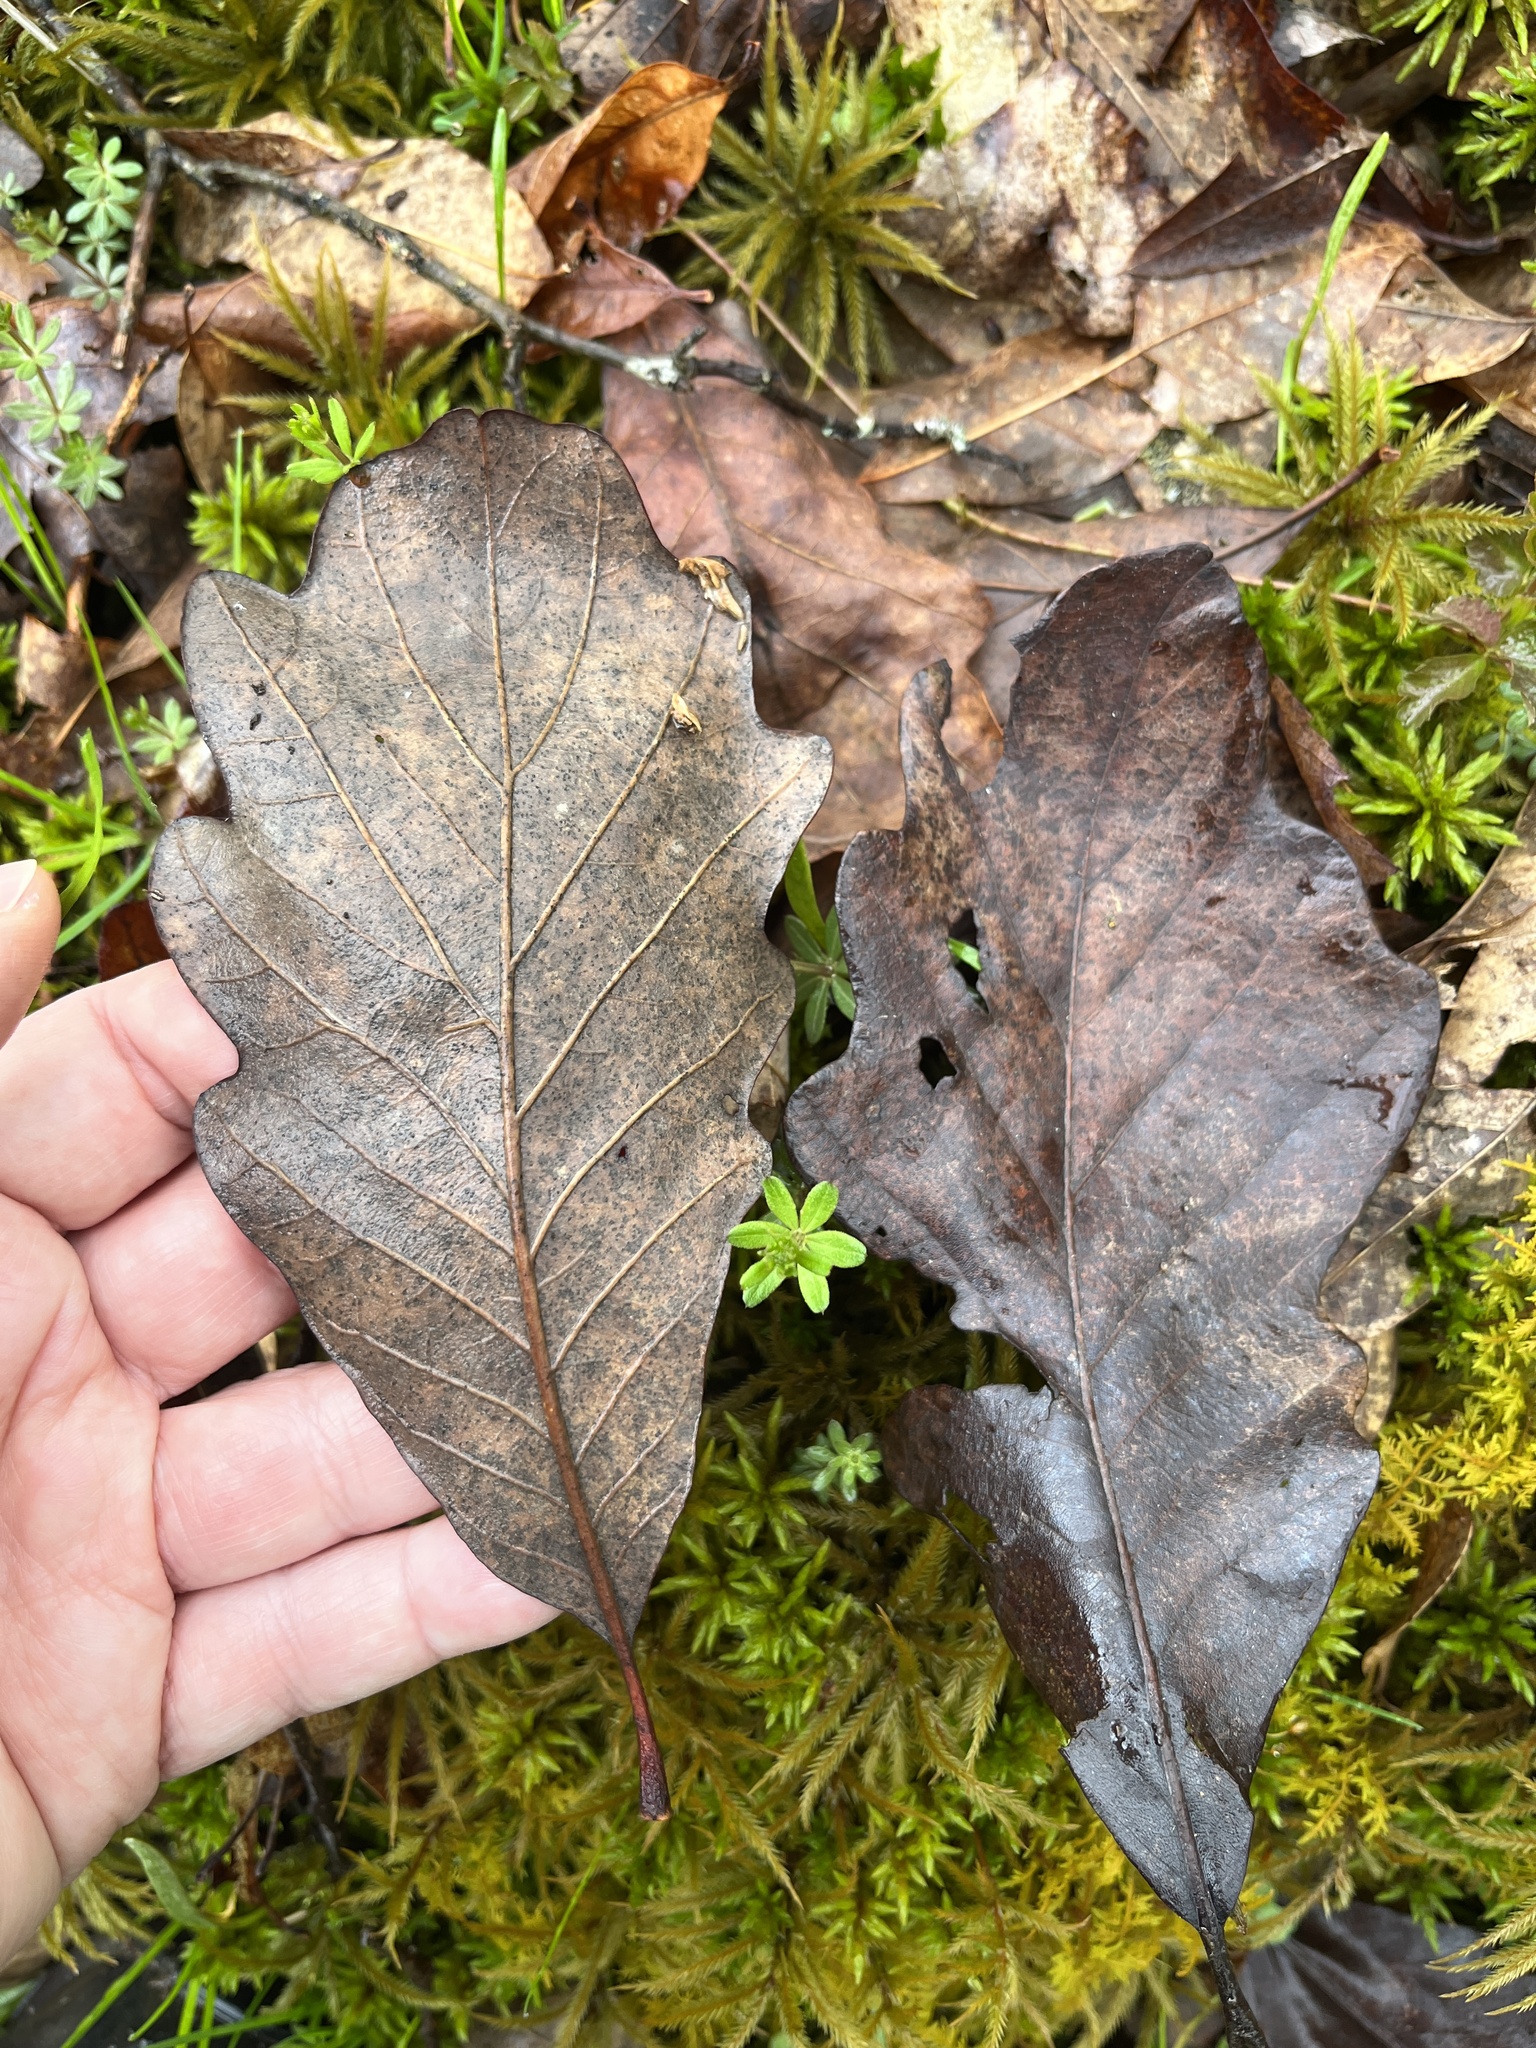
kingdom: Plantae
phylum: Tracheophyta
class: Magnoliopsida
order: Fagales
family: Fagaceae
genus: Quercus
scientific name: Quercus bicolor
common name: Swamp white oak
